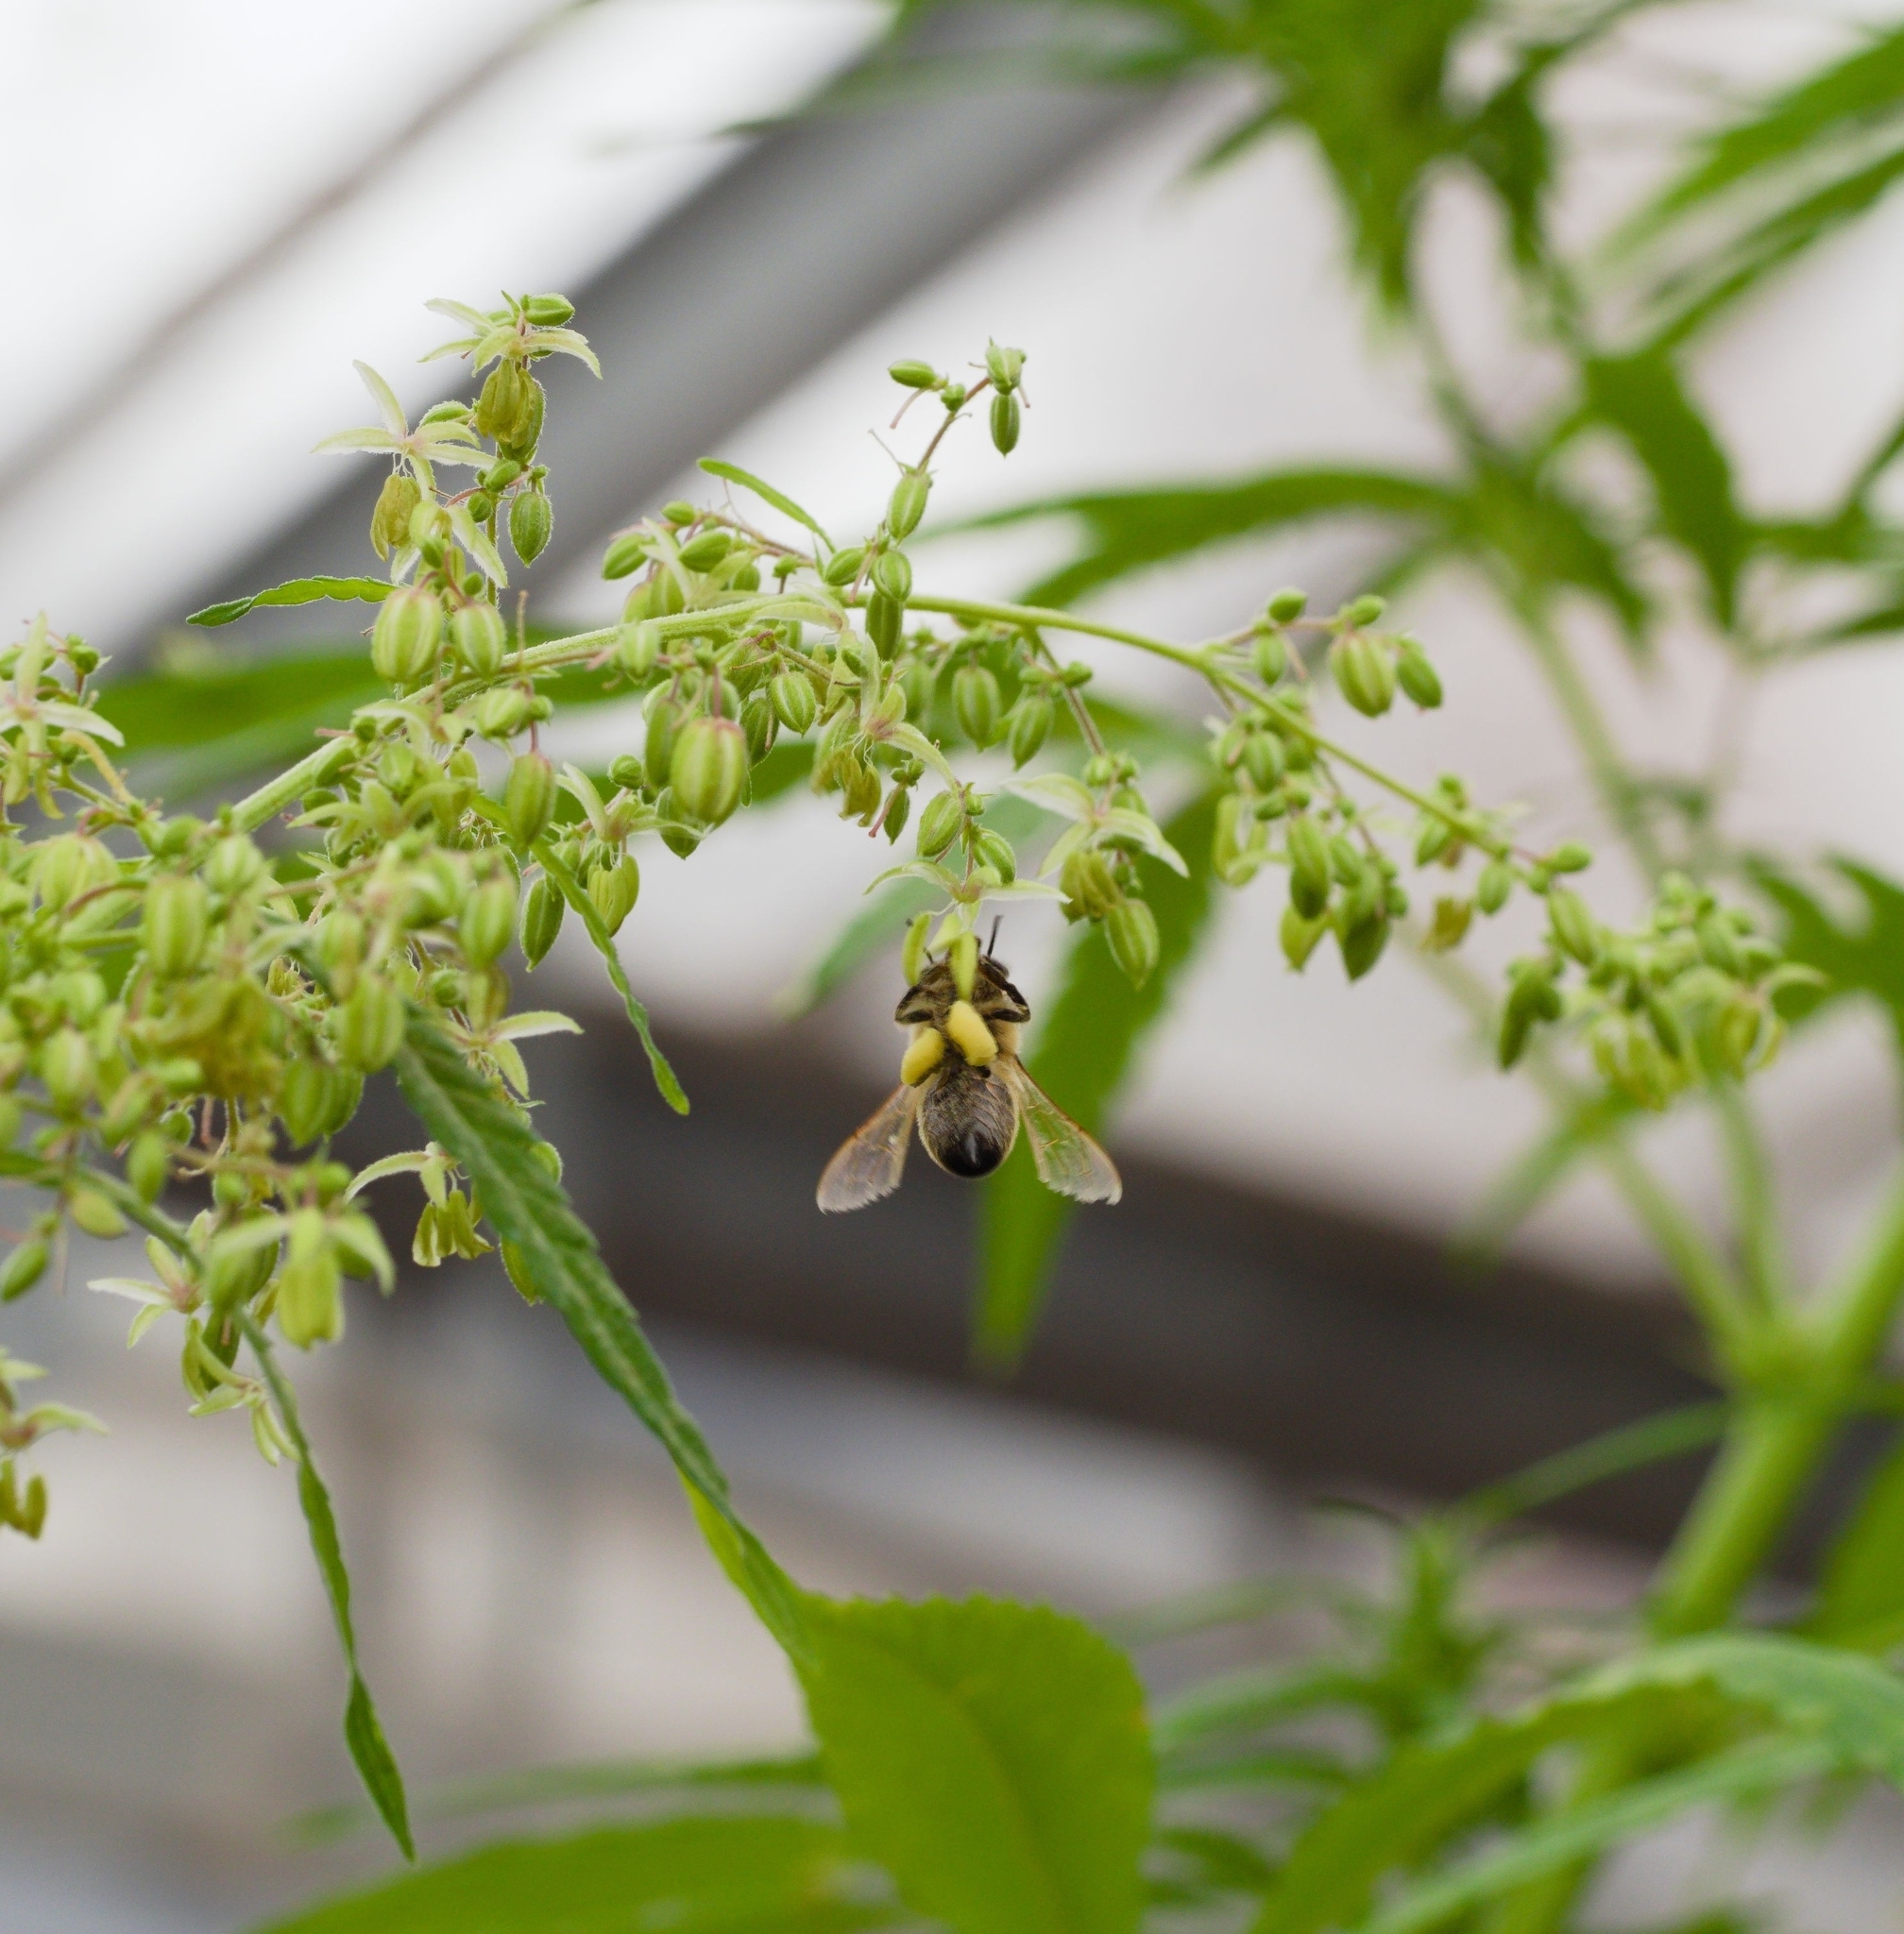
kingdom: Animalia
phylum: Arthropoda
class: Insecta
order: Hymenoptera
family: Apidae
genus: Apis
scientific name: Apis mellifera
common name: Honey bee
